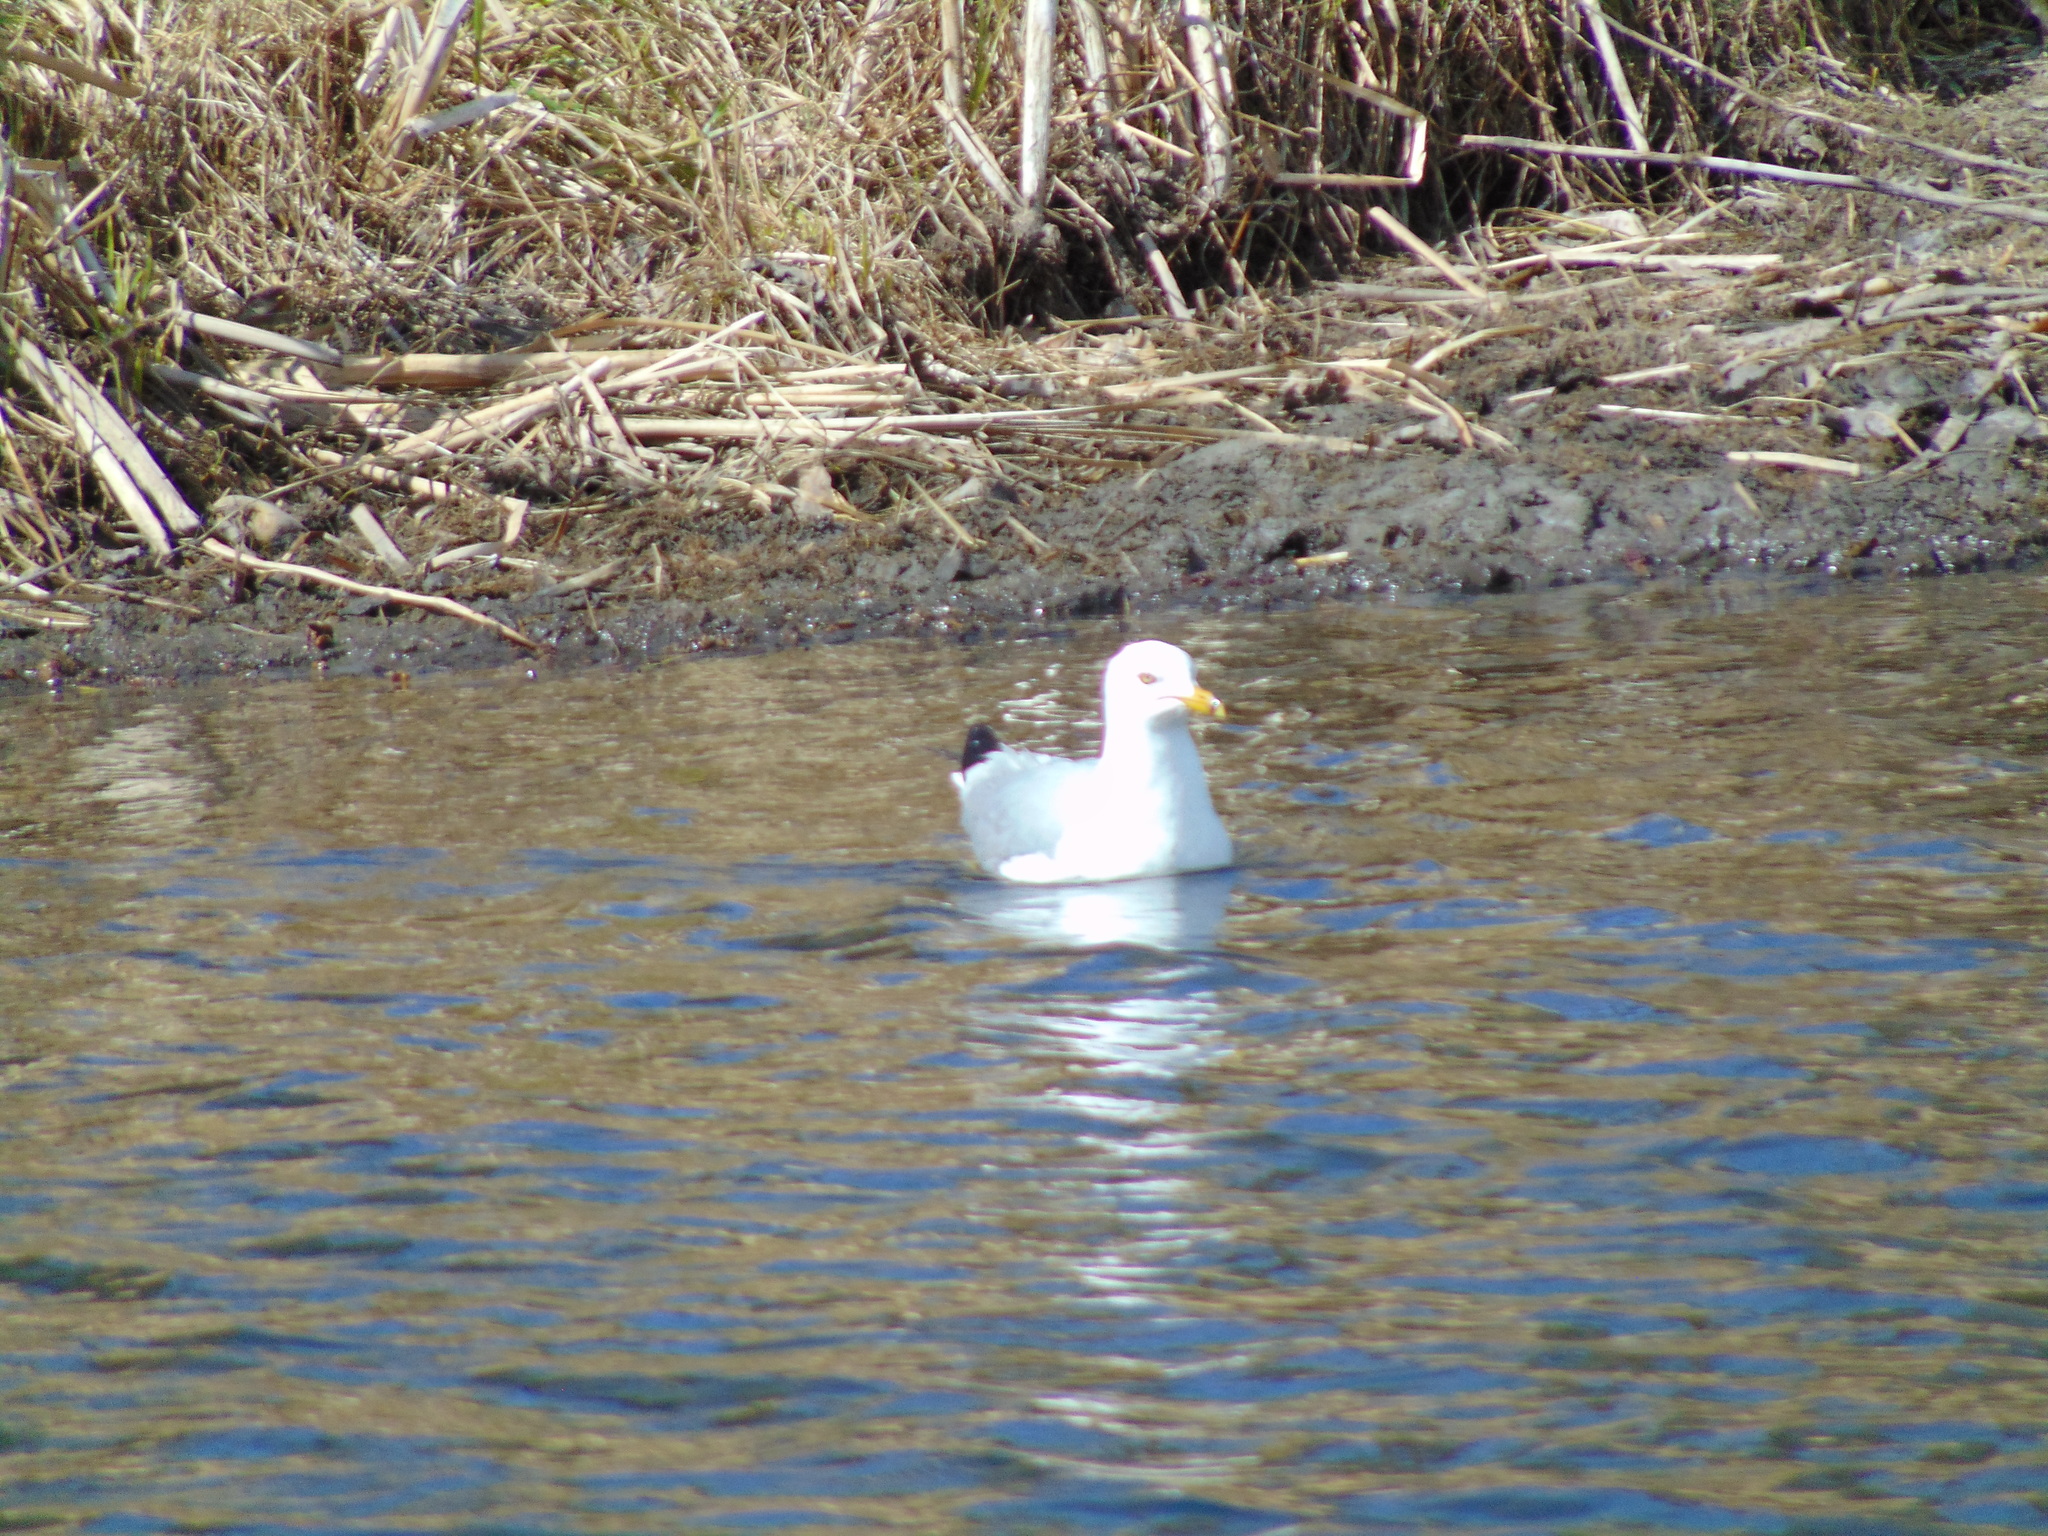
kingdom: Animalia
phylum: Chordata
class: Aves
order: Charadriiformes
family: Laridae
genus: Larus
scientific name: Larus delawarensis
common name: Ring-billed gull
